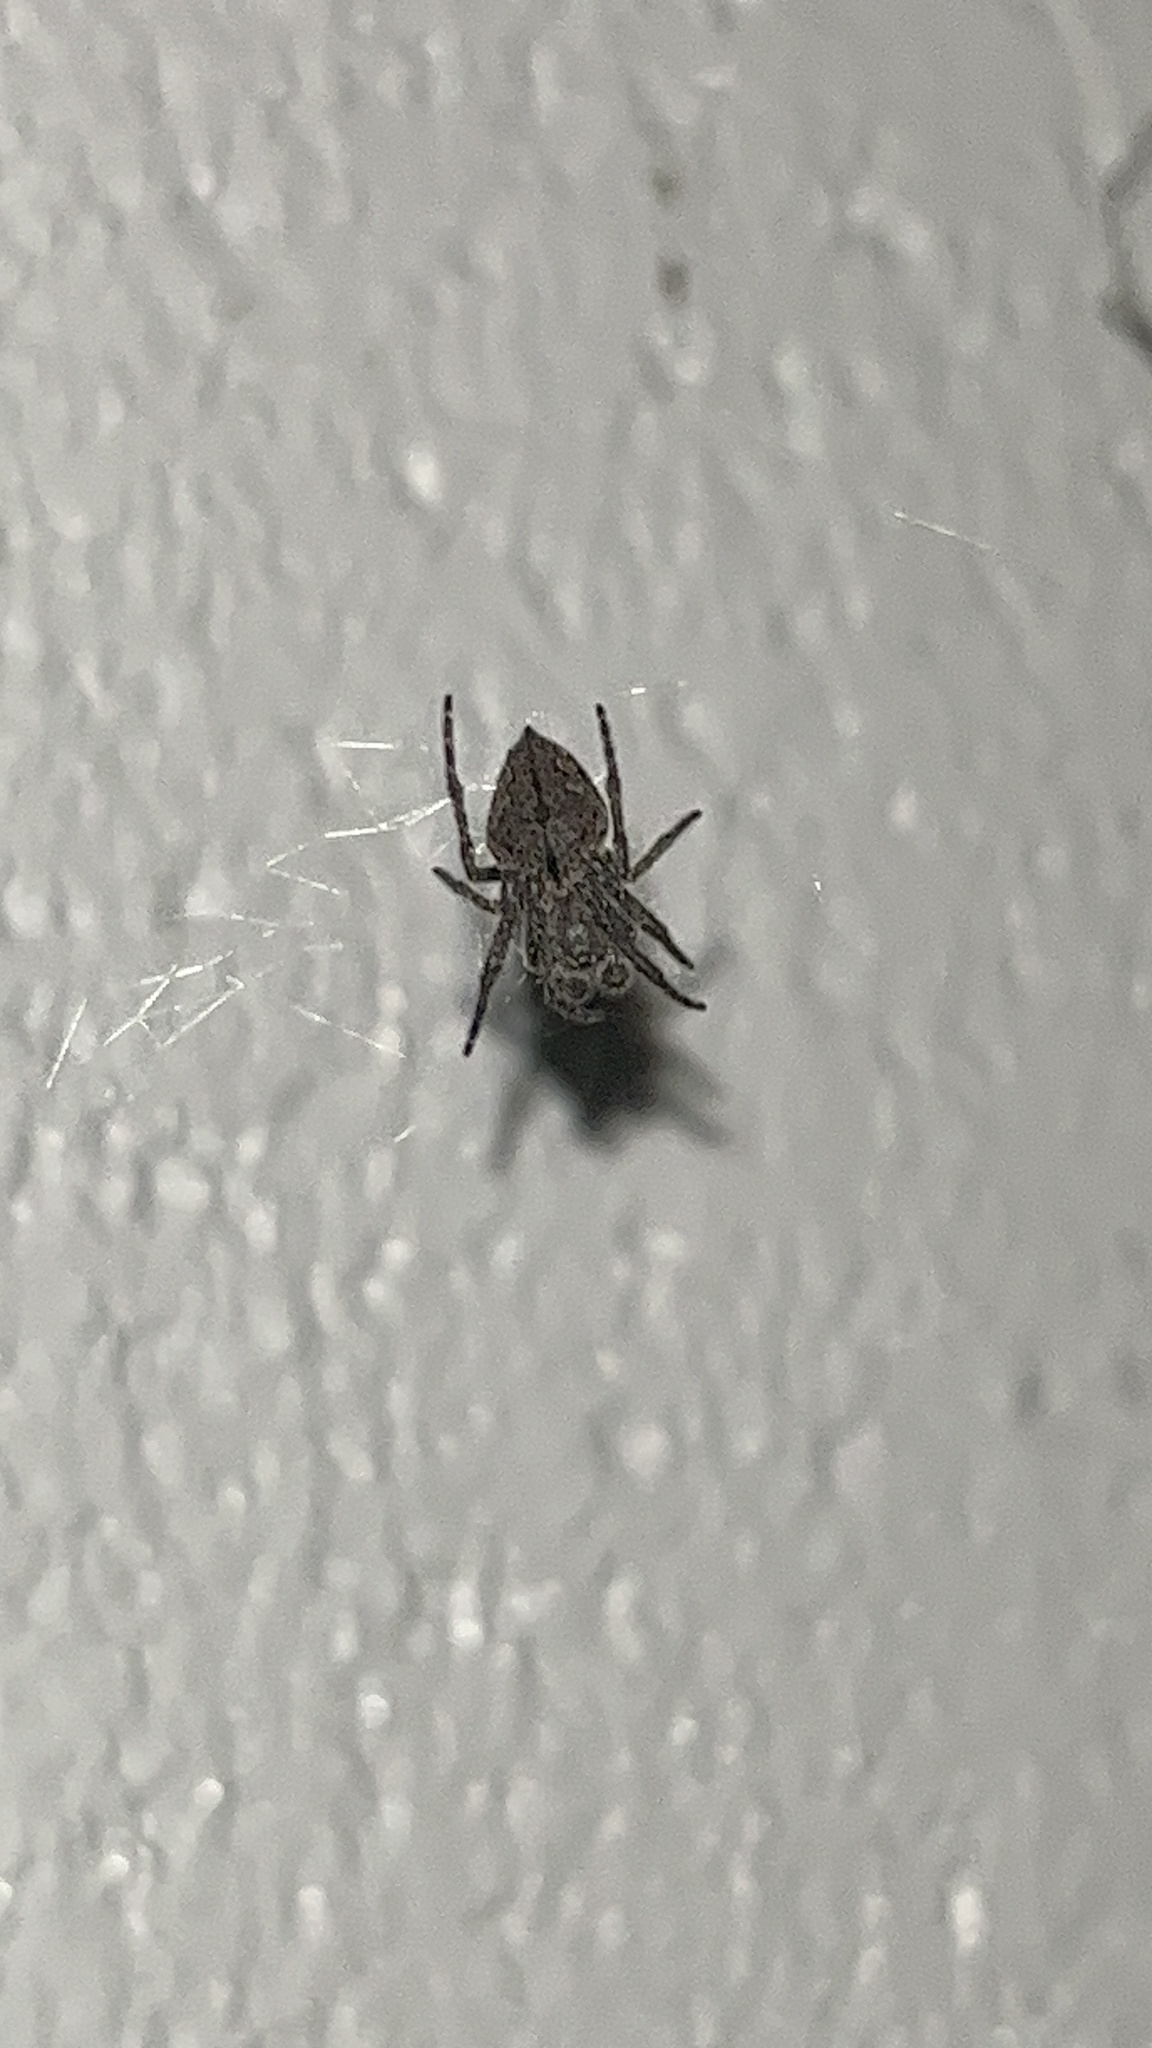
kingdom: Animalia
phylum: Arthropoda
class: Arachnida
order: Araneae
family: Araneidae
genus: Eriophora
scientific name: Eriophora pustulosa
